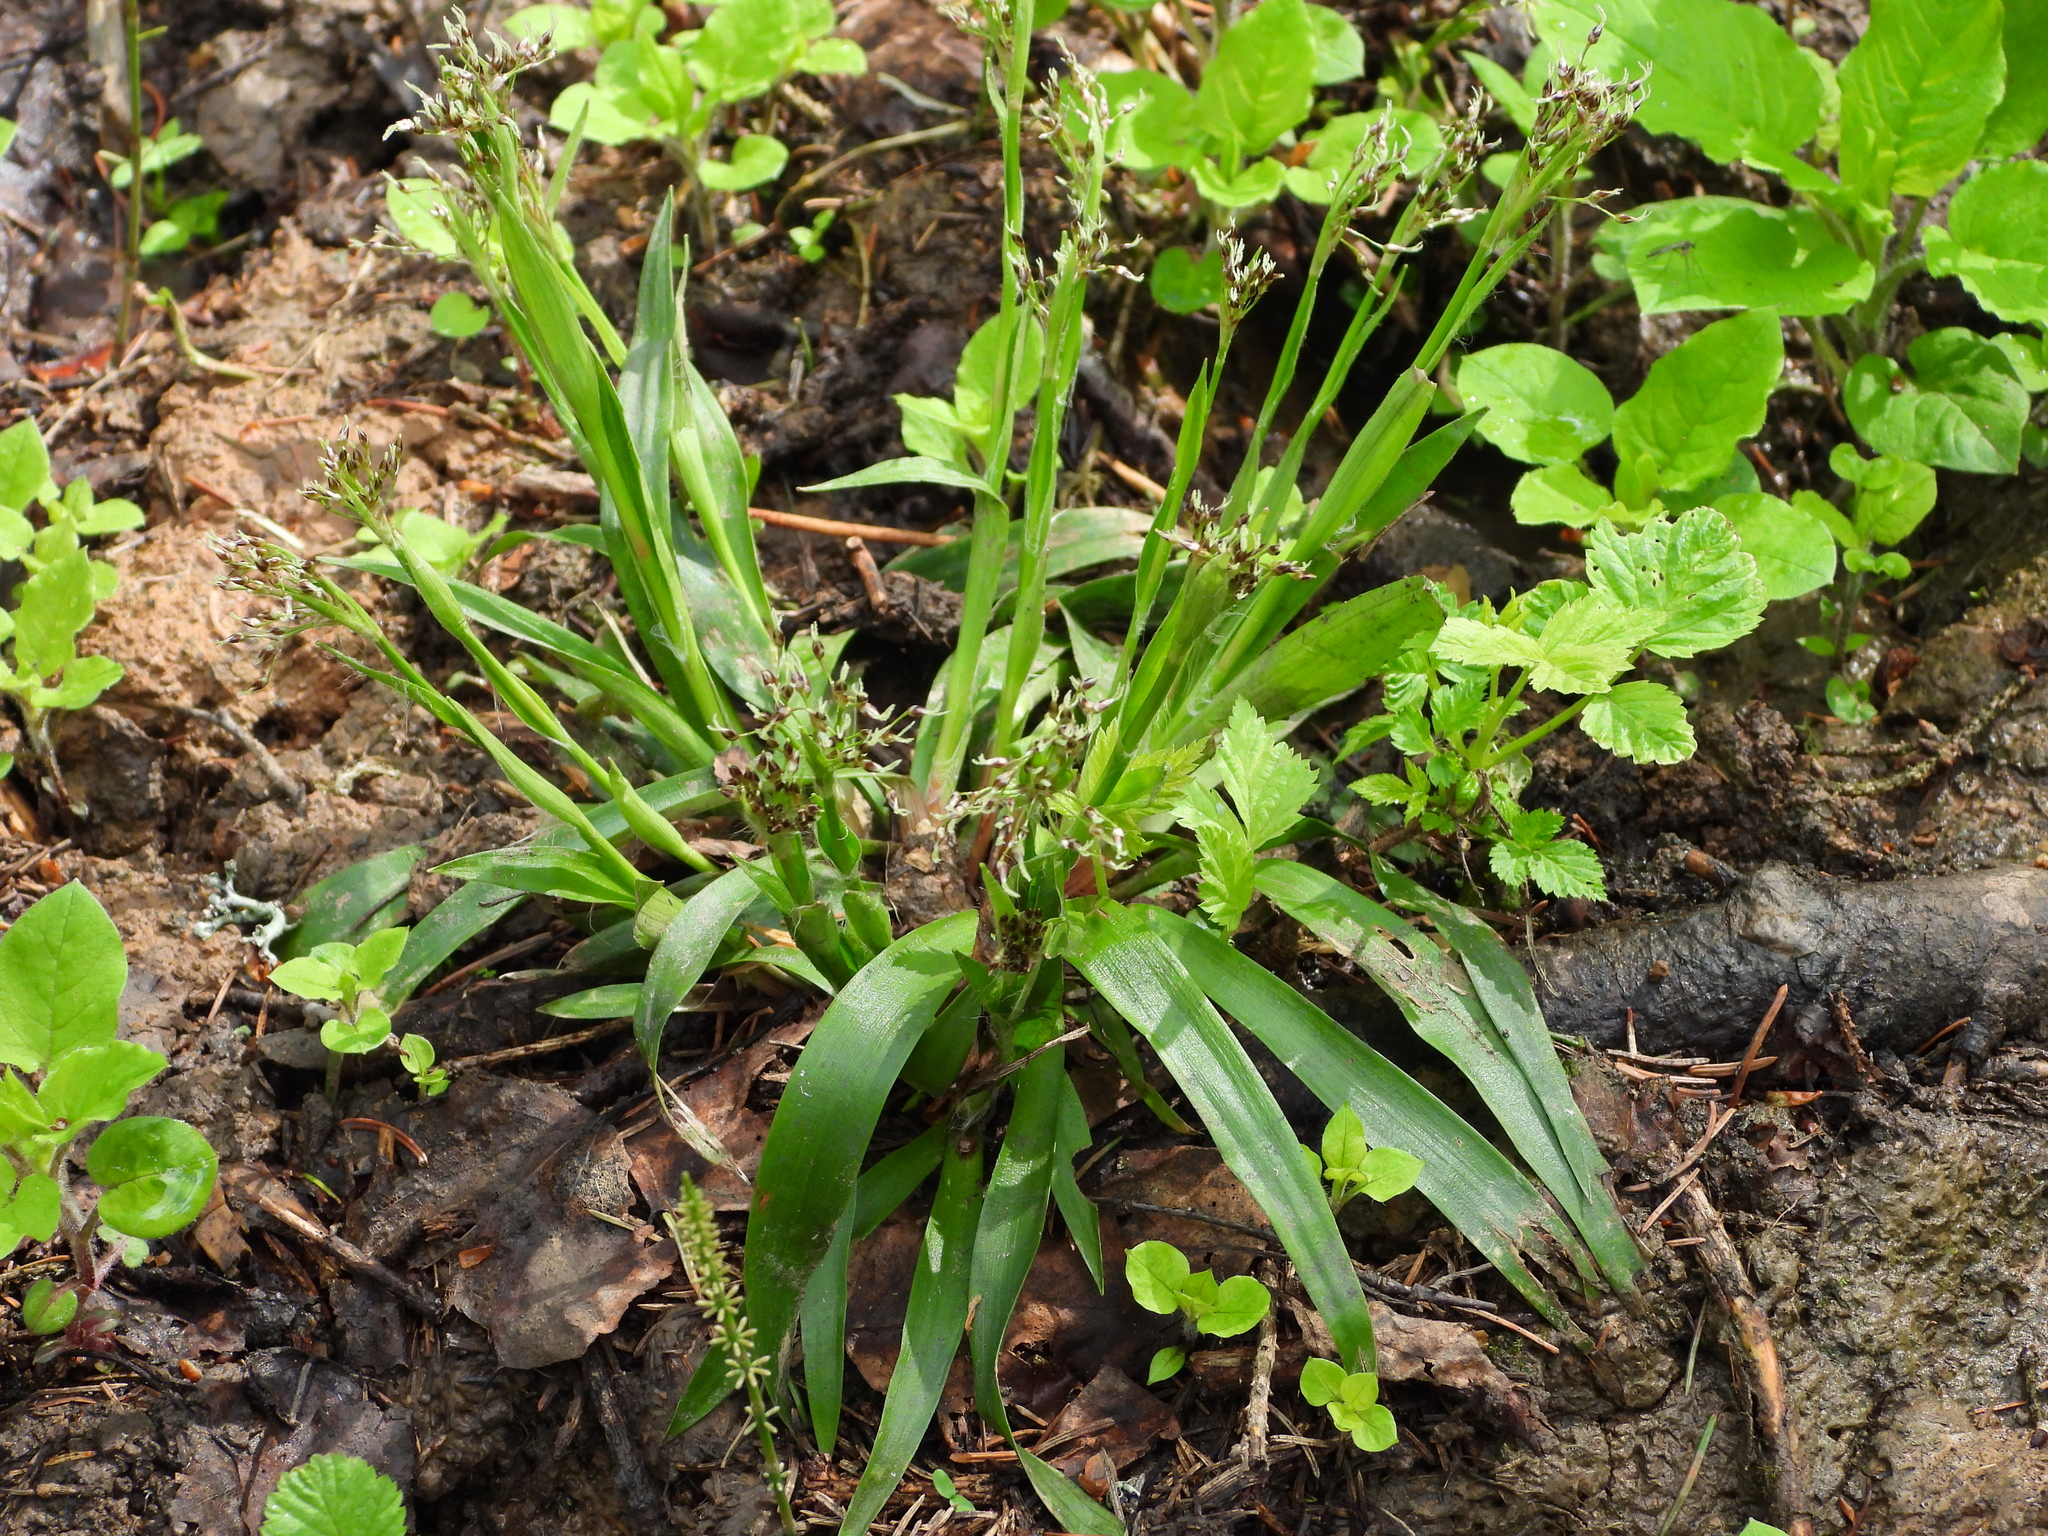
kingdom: Plantae
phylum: Tracheophyta
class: Liliopsida
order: Poales
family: Juncaceae
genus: Luzula
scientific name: Luzula pilosa
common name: Hairy wood-rush
